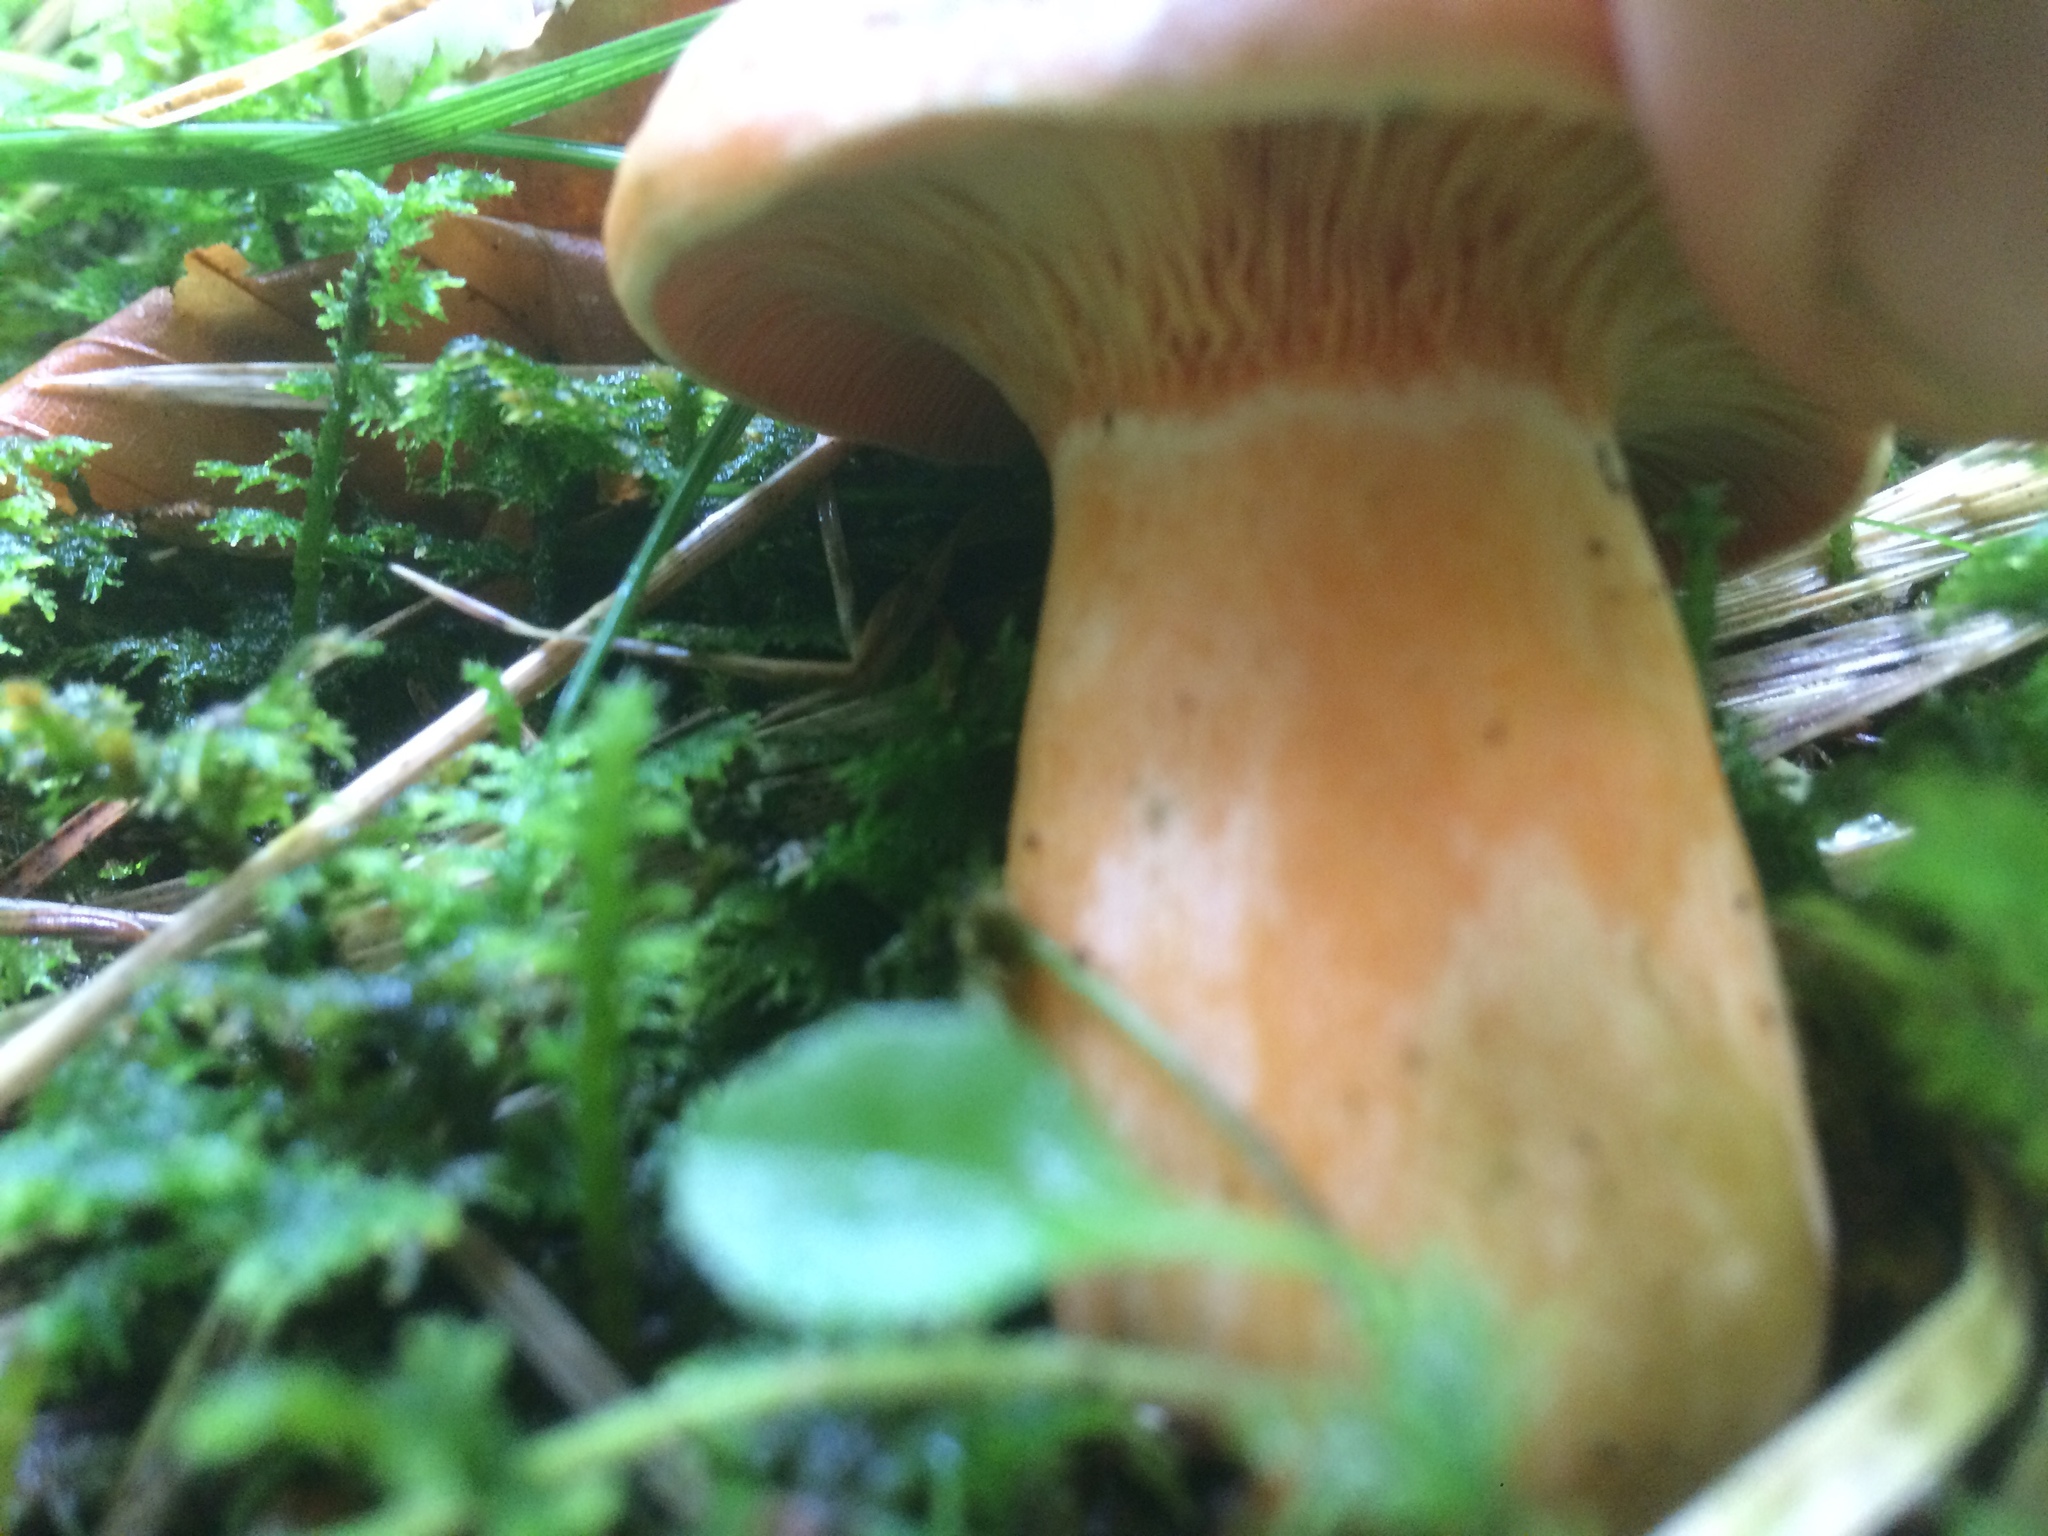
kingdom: Fungi
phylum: Basidiomycota
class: Agaricomycetes
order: Russulales
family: Russulaceae
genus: Lactarius
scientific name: Lactarius deterrimus
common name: False saffron milkcap
